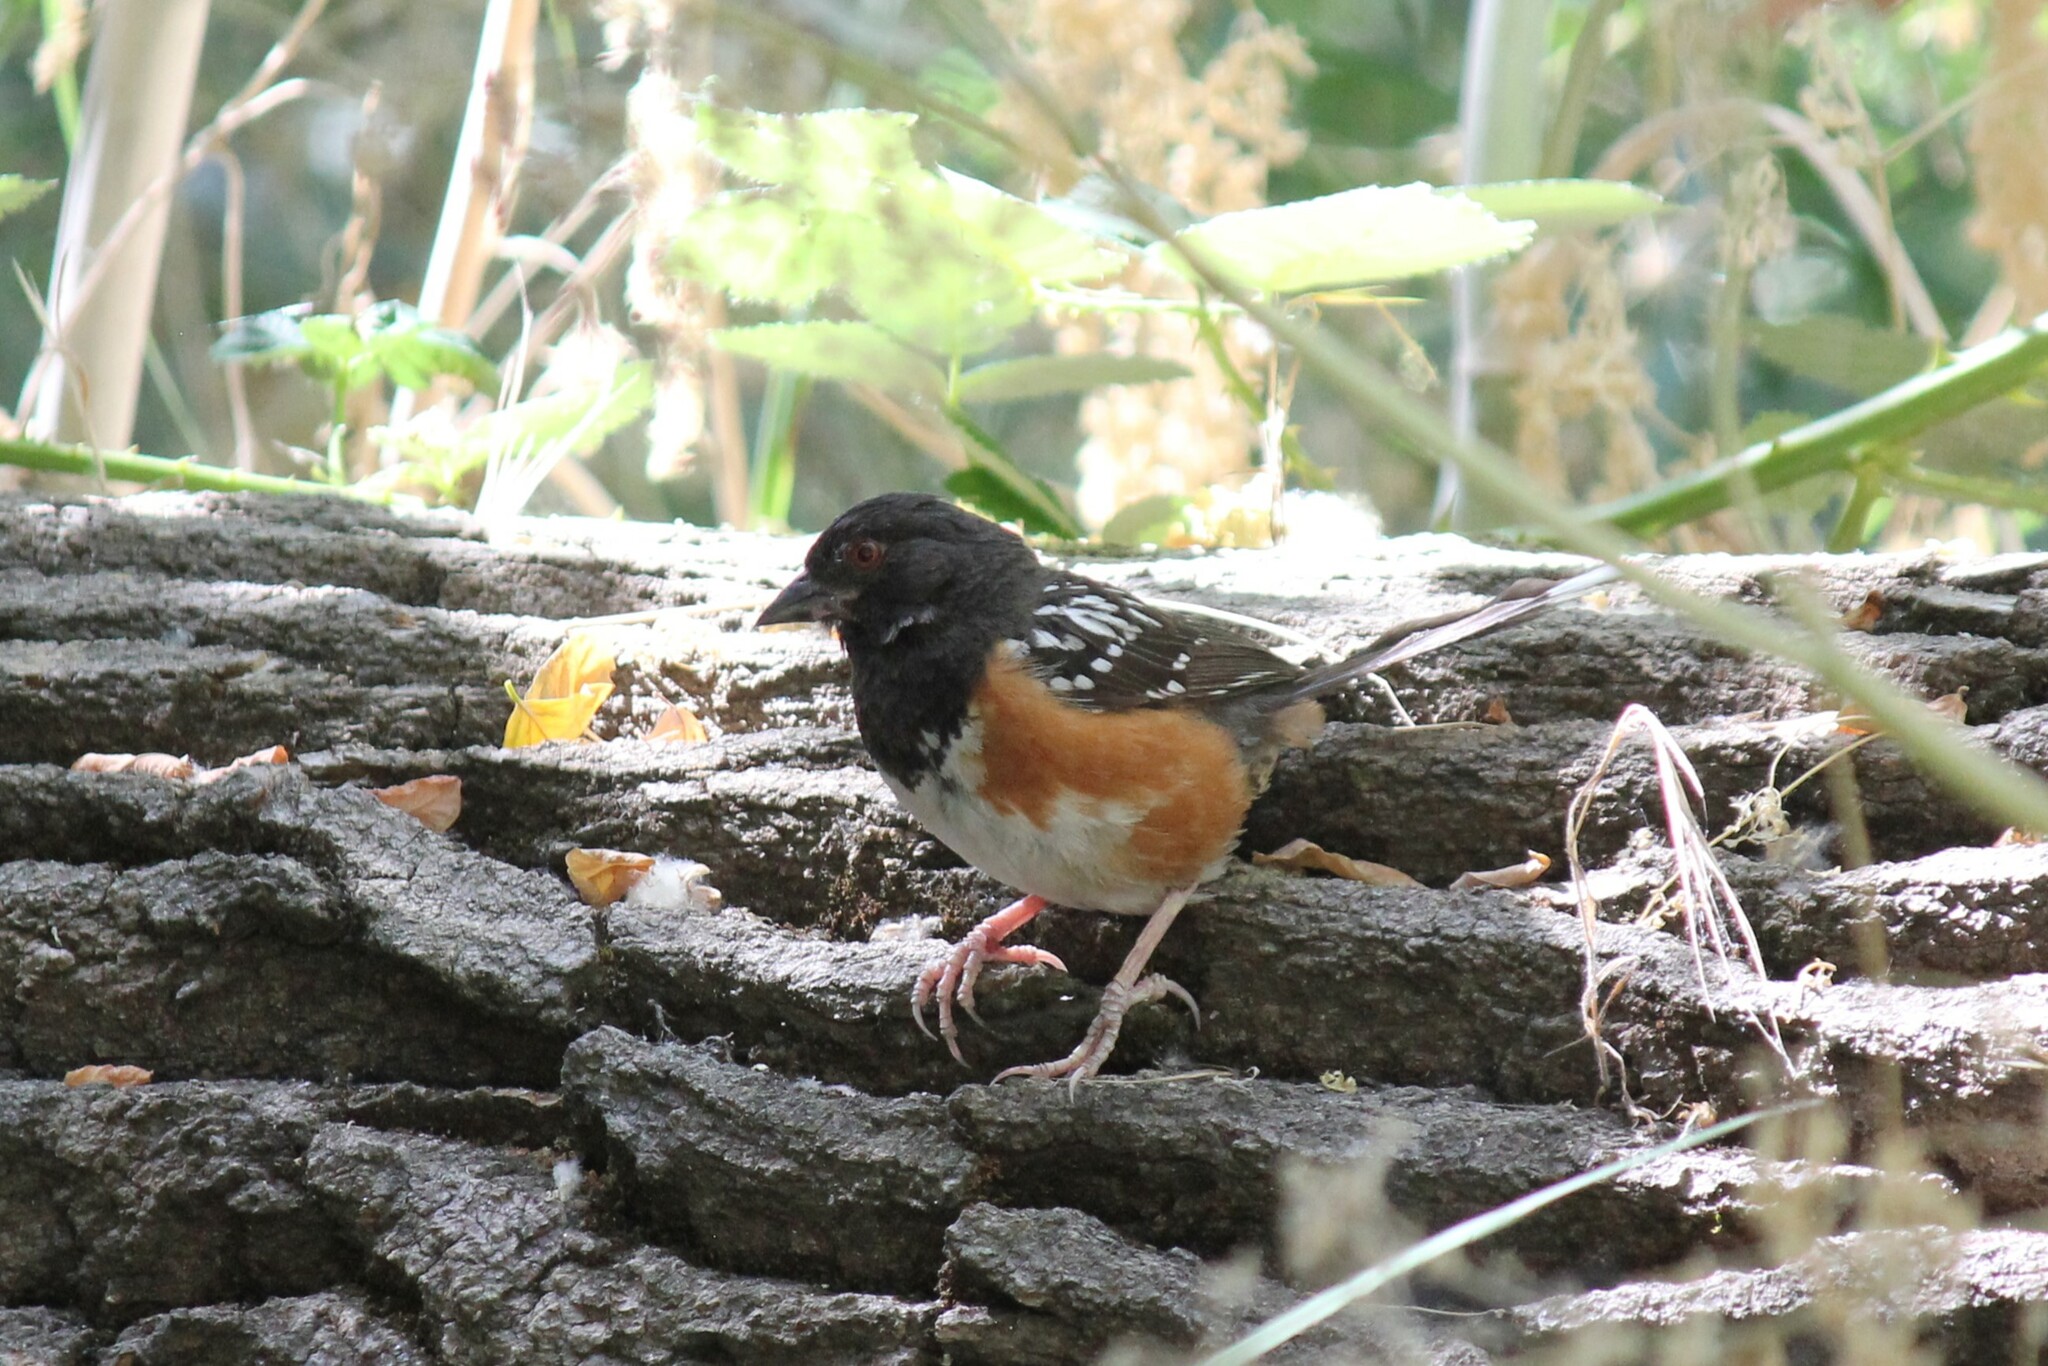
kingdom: Animalia
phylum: Chordata
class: Aves
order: Passeriformes
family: Passerellidae
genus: Pipilo
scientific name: Pipilo maculatus
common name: Spotted towhee
